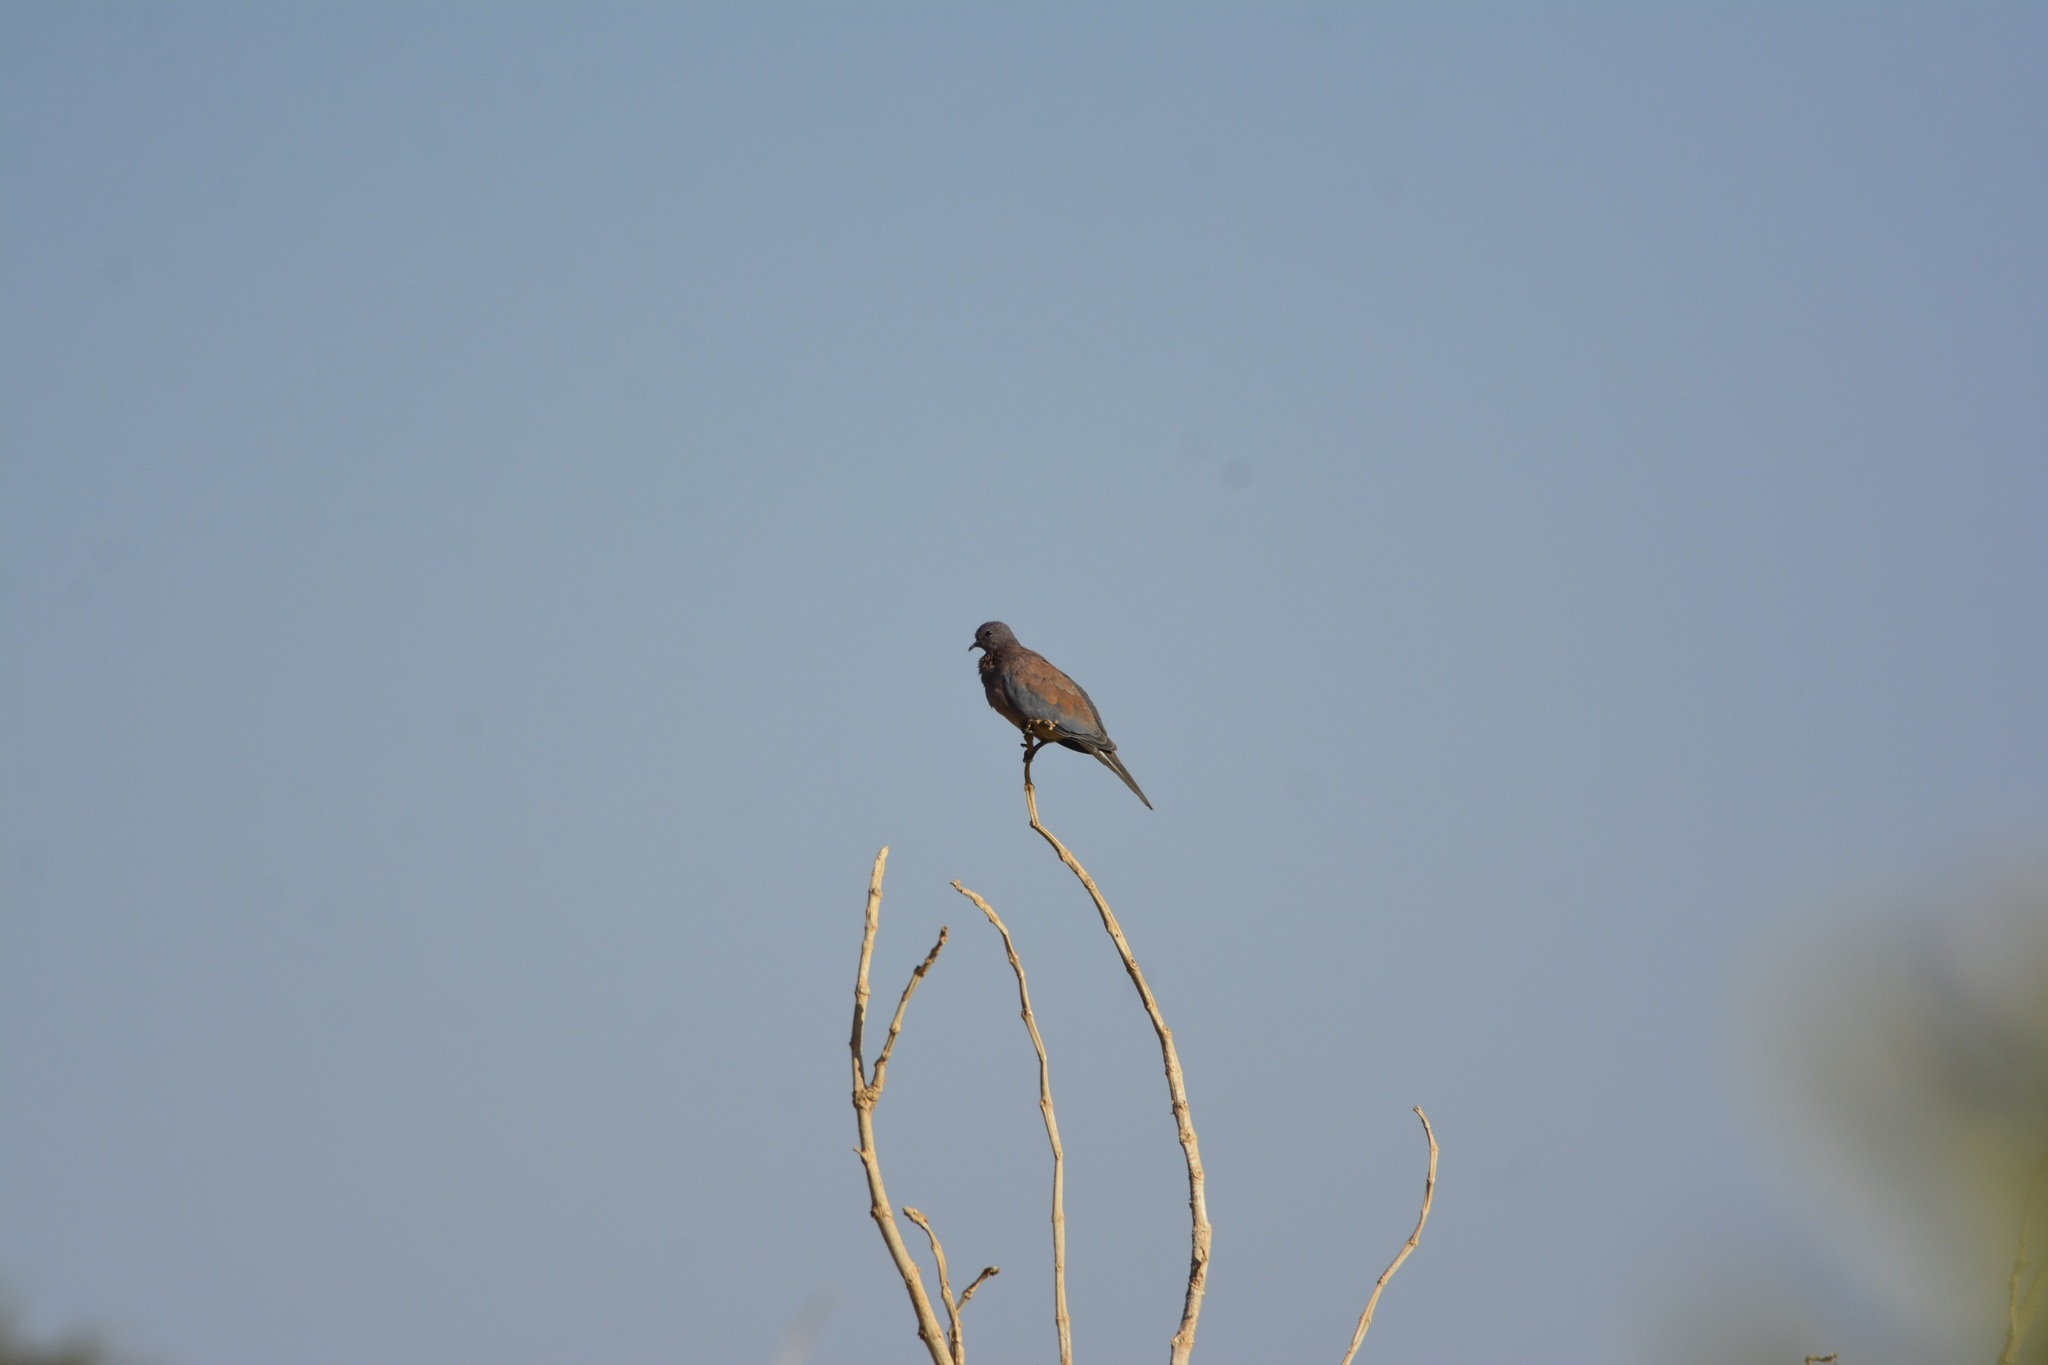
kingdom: Animalia
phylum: Chordata
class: Aves
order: Columbiformes
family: Columbidae
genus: Spilopelia
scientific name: Spilopelia senegalensis
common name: Laughing dove
